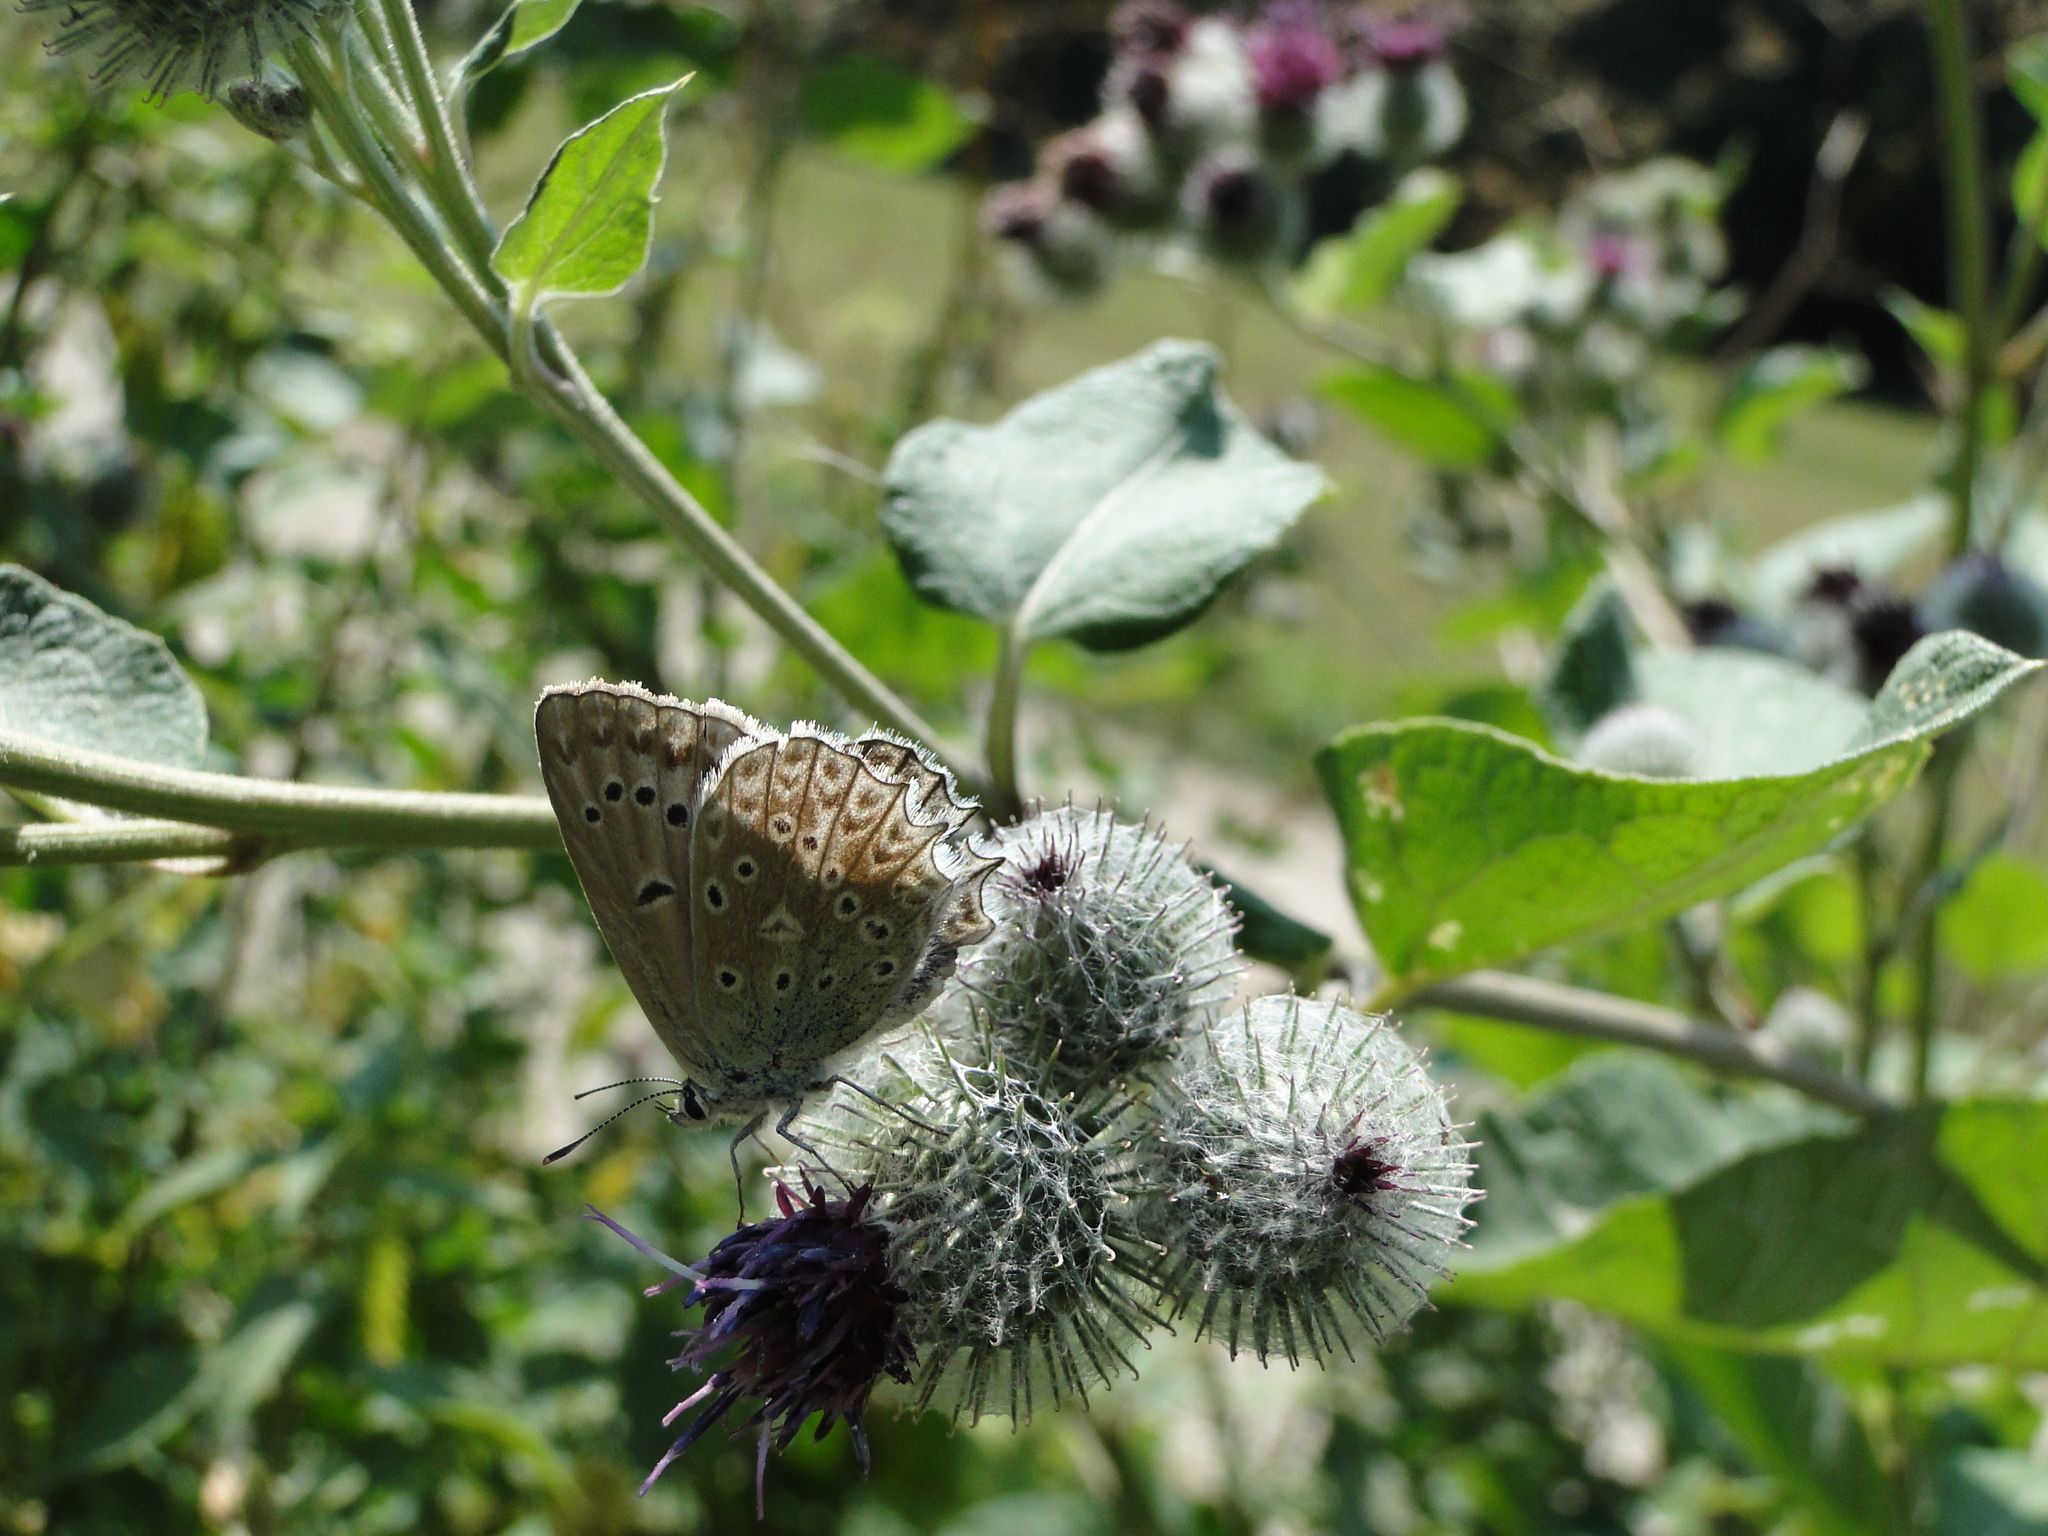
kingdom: Animalia
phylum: Arthropoda
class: Insecta
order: Lepidoptera
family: Lycaenidae
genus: Polyommatus
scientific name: Polyommatus daphnis
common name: Meleager's blue
